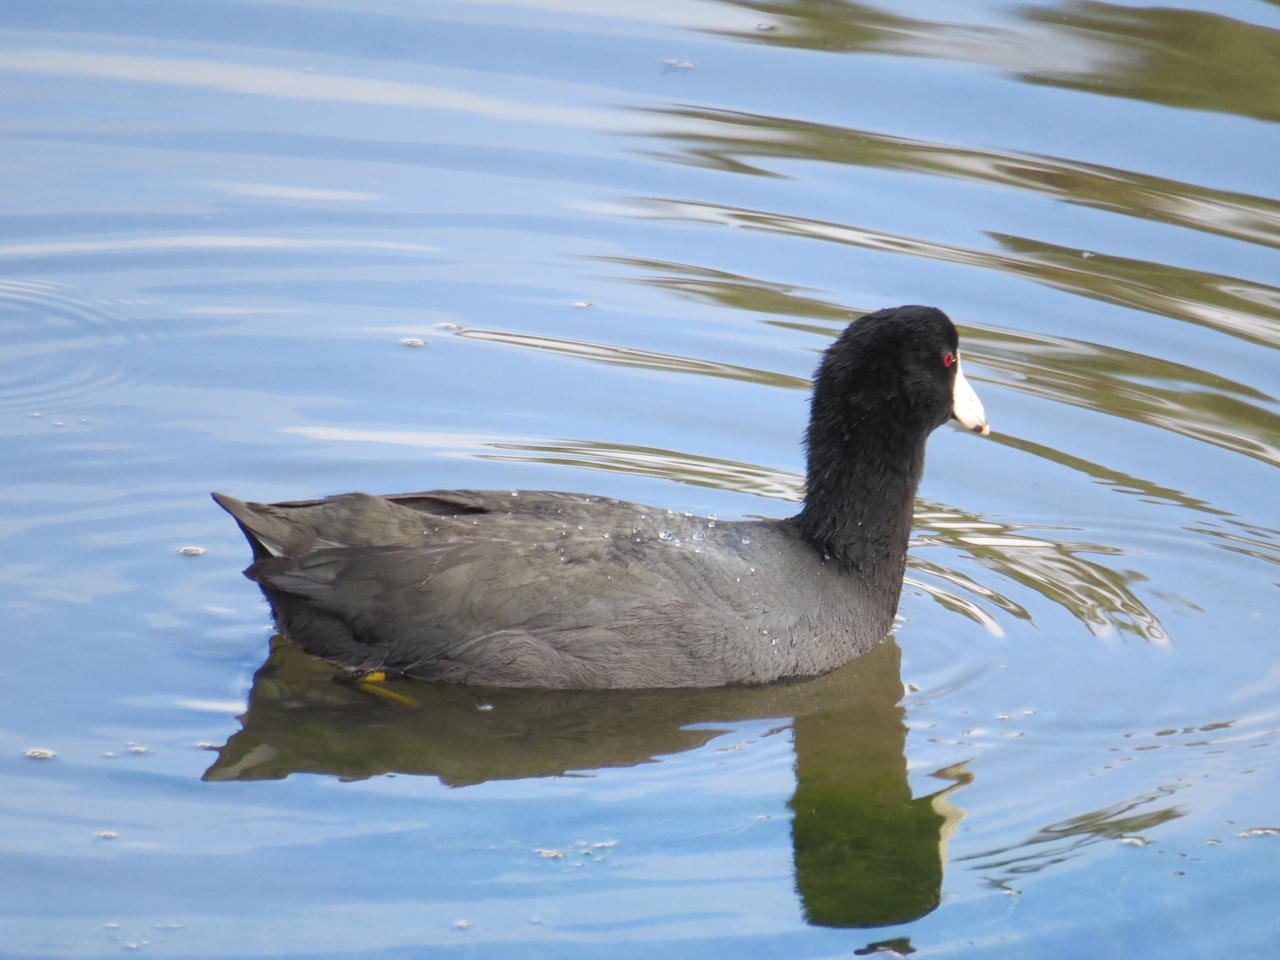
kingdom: Animalia
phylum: Chordata
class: Aves
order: Gruiformes
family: Rallidae
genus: Fulica
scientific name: Fulica americana
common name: American coot
